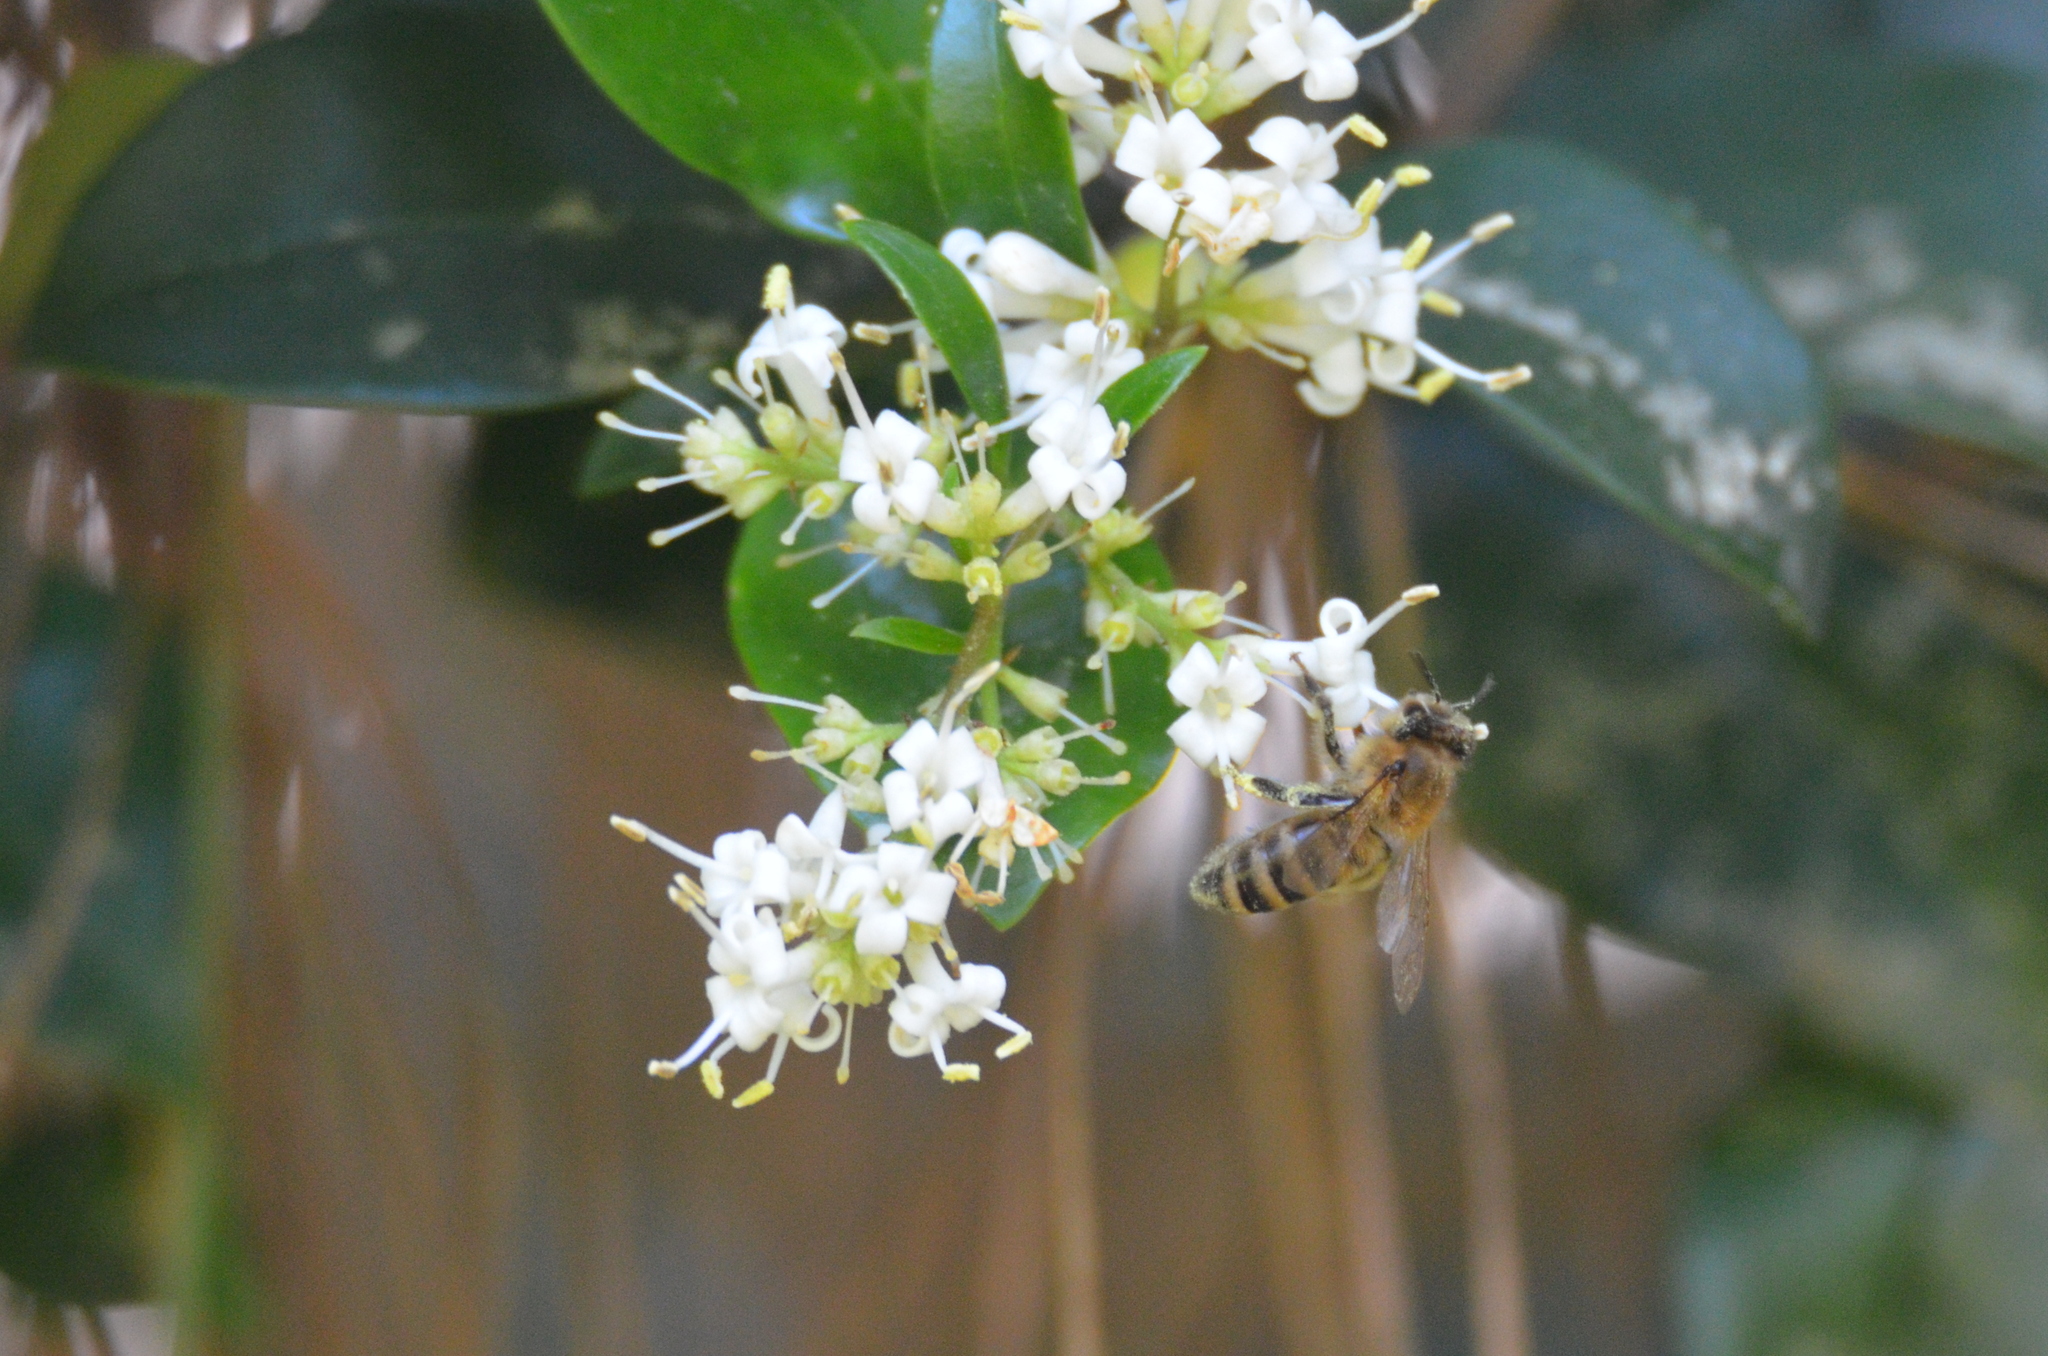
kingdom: Animalia
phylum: Arthropoda
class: Insecta
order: Hymenoptera
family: Apidae
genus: Apis
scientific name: Apis mellifera
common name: Honey bee
